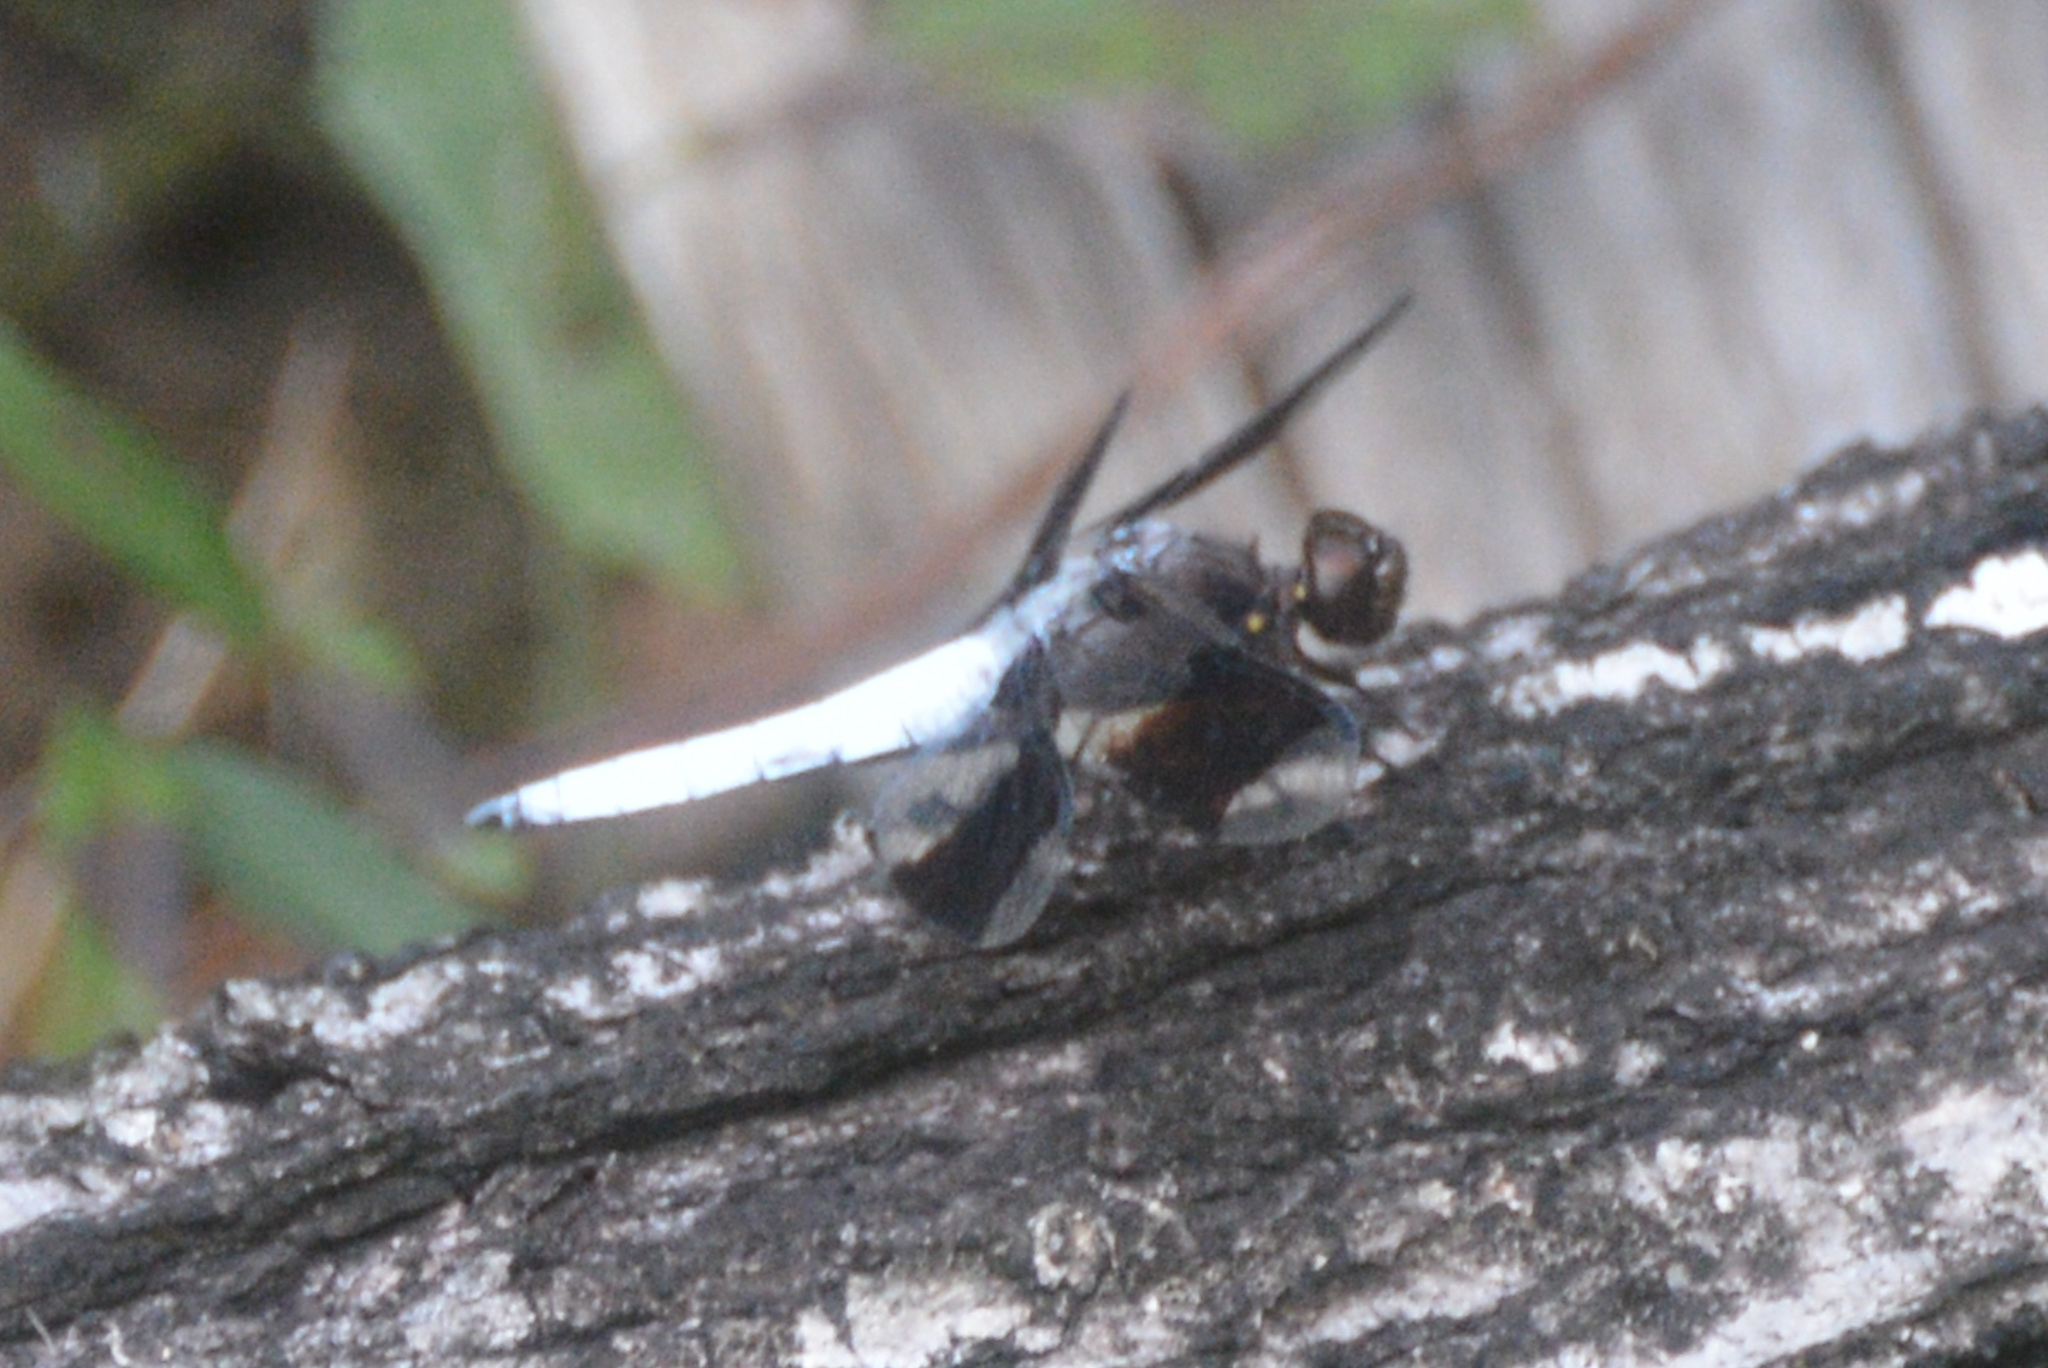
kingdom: Animalia
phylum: Arthropoda
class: Insecta
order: Odonata
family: Libellulidae
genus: Plathemis
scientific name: Plathemis lydia
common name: Common whitetail
